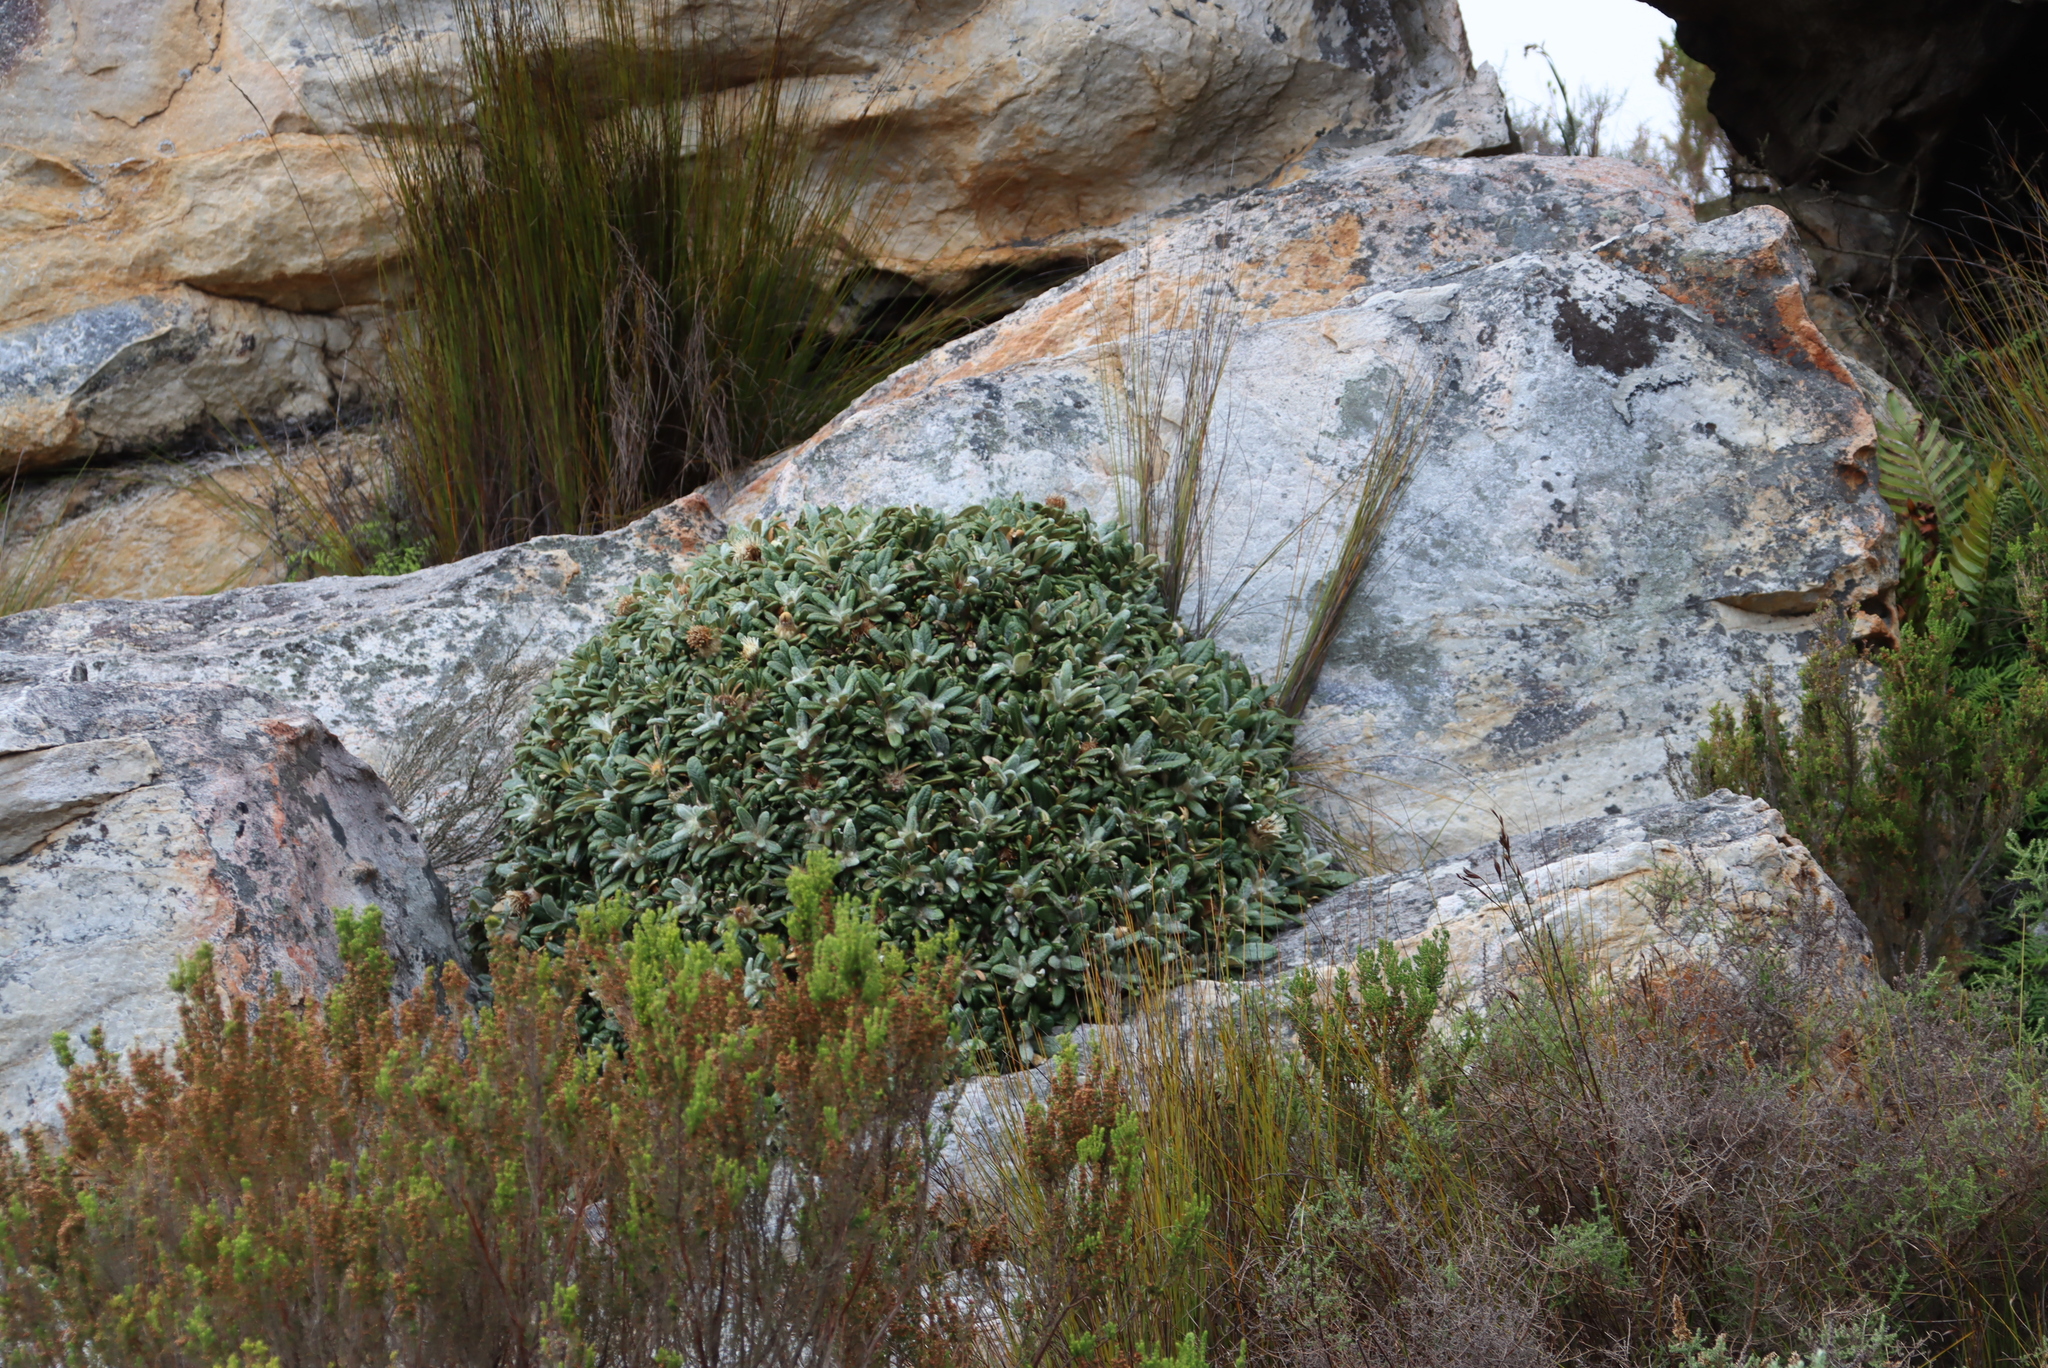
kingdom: Plantae
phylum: Tracheophyta
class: Magnoliopsida
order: Asterales
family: Asteraceae
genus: Oldenburgia
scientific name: Oldenburgia paradoxa
